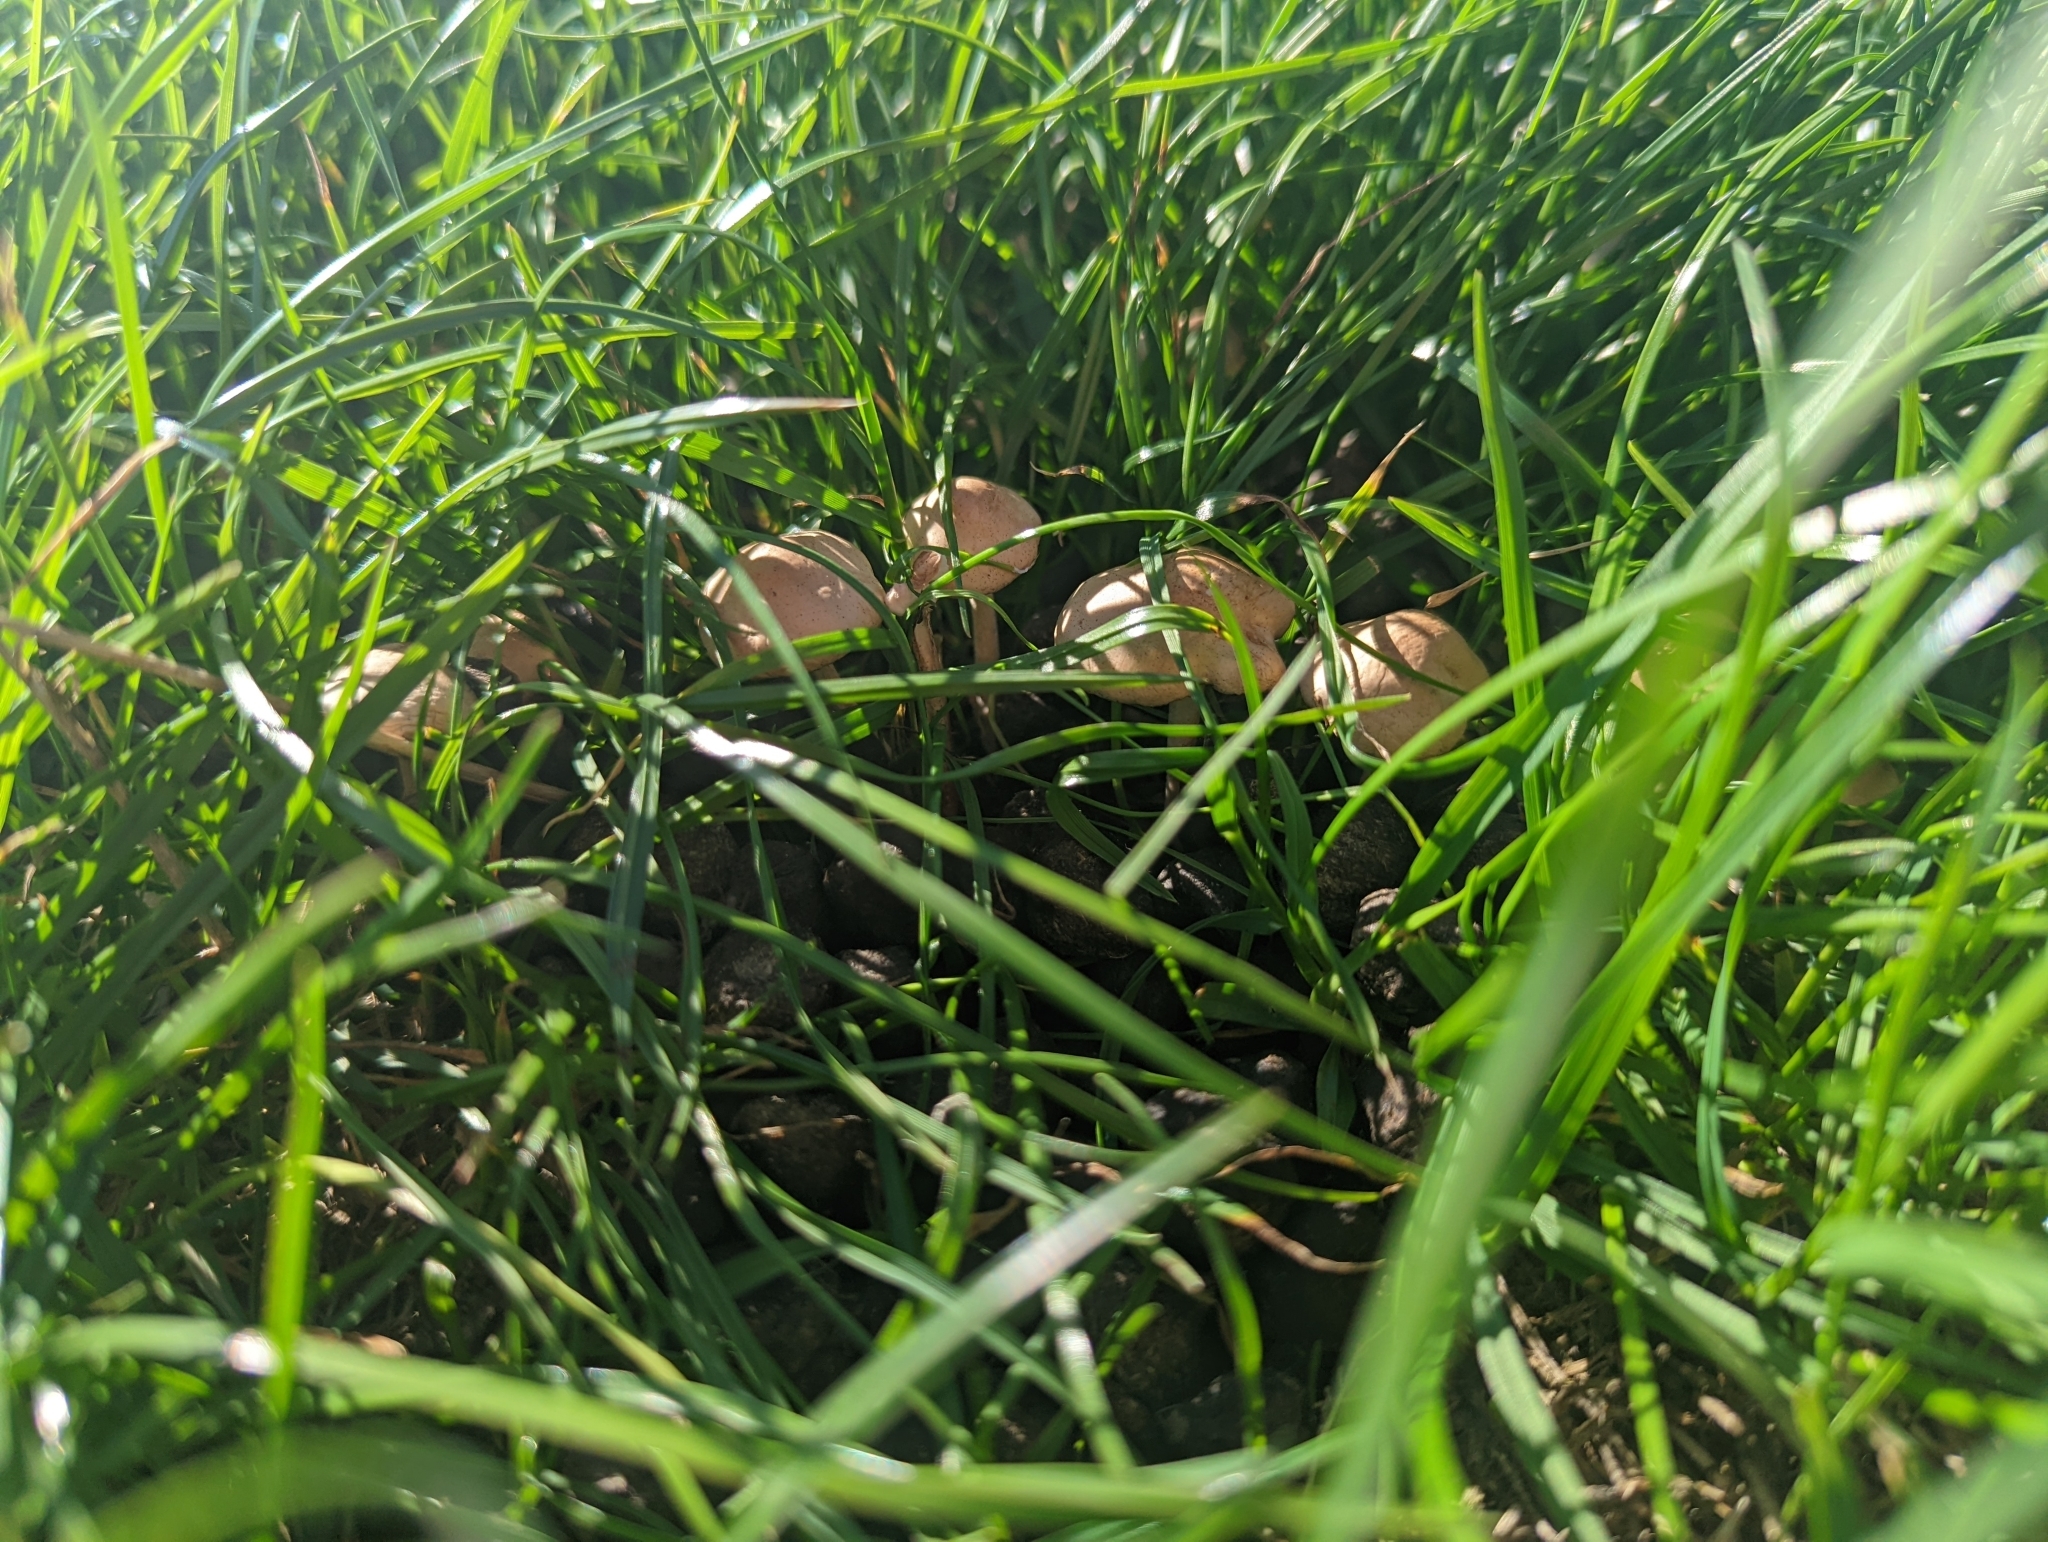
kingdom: Fungi
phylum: Basidiomycota
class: Agaricomycetes
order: Agaricales
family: Marasmiaceae
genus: Marasmius
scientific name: Marasmius oreades
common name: Fairy ring champignon
